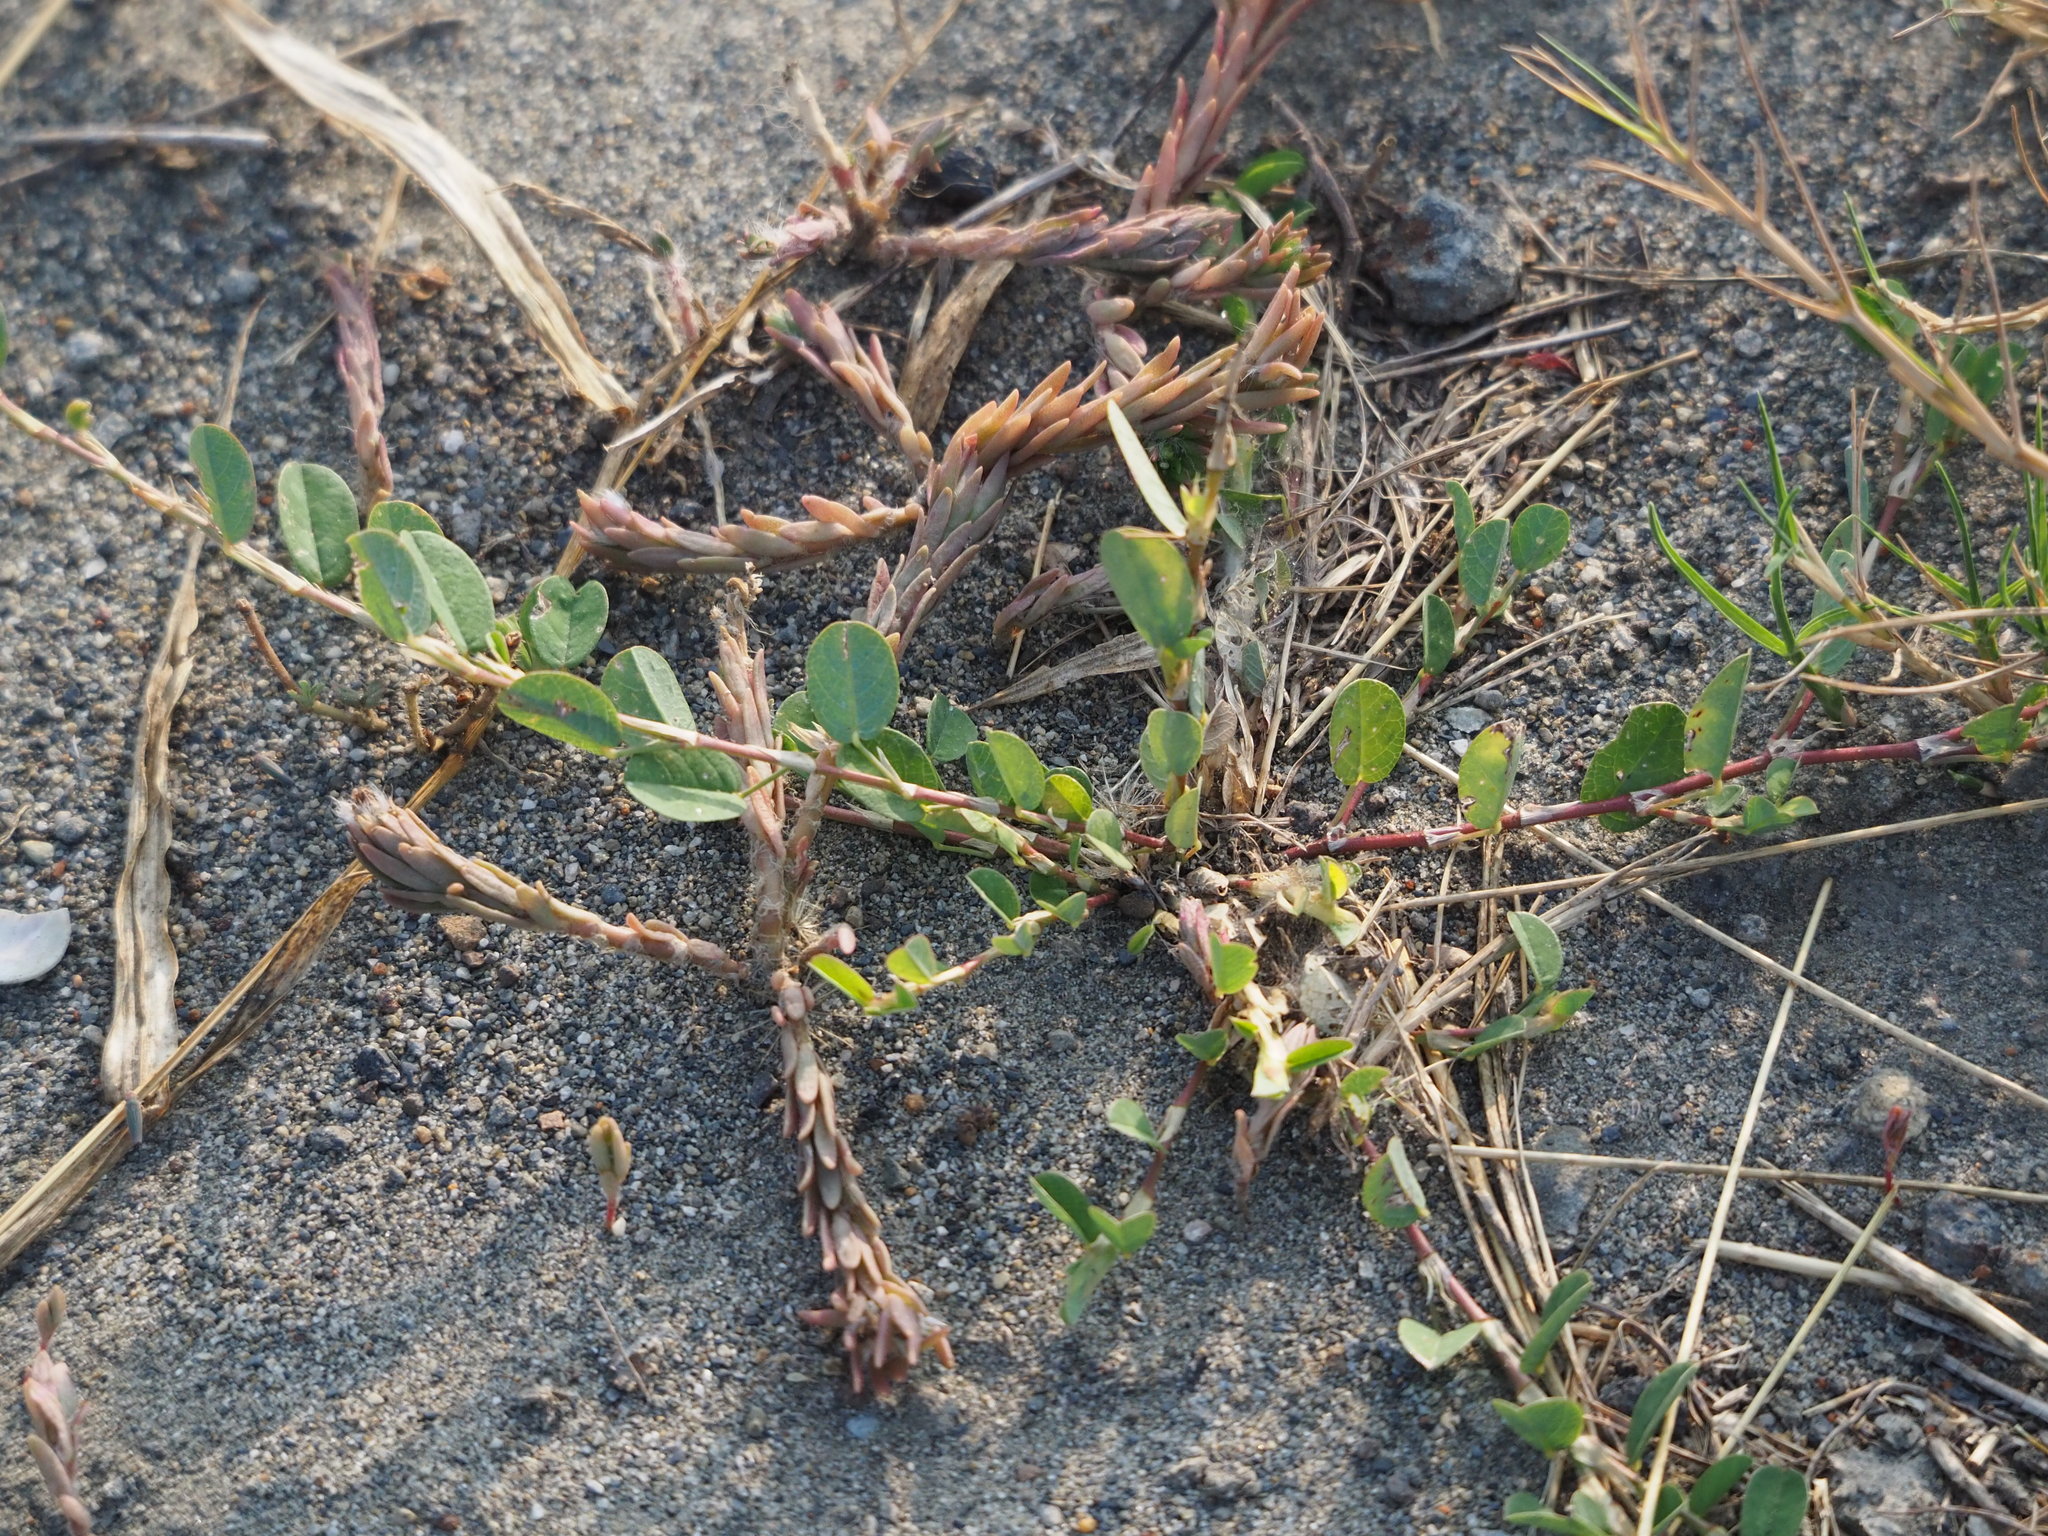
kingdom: Plantae
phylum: Tracheophyta
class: Magnoliopsida
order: Fabales
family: Fabaceae
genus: Alysicarpus
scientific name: Alysicarpus vaginalis
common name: White moneywort
